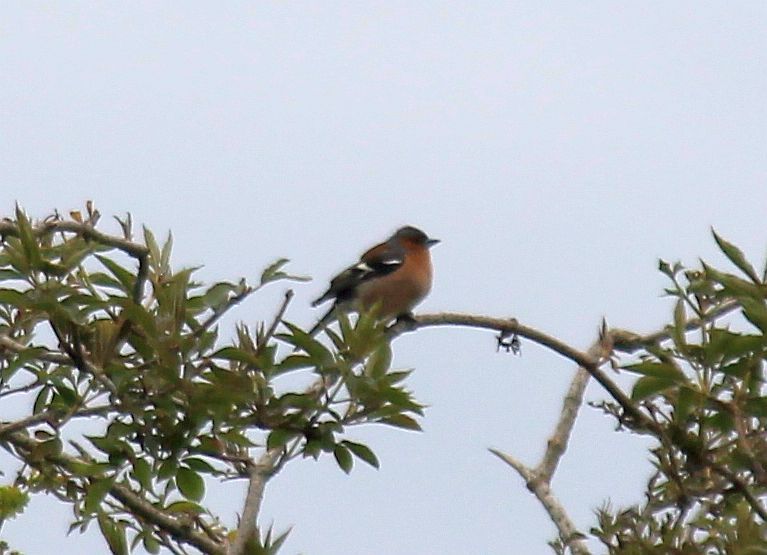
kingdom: Animalia
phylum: Chordata
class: Aves
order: Passeriformes
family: Fringillidae
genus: Fringilla
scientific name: Fringilla coelebs
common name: Common chaffinch
